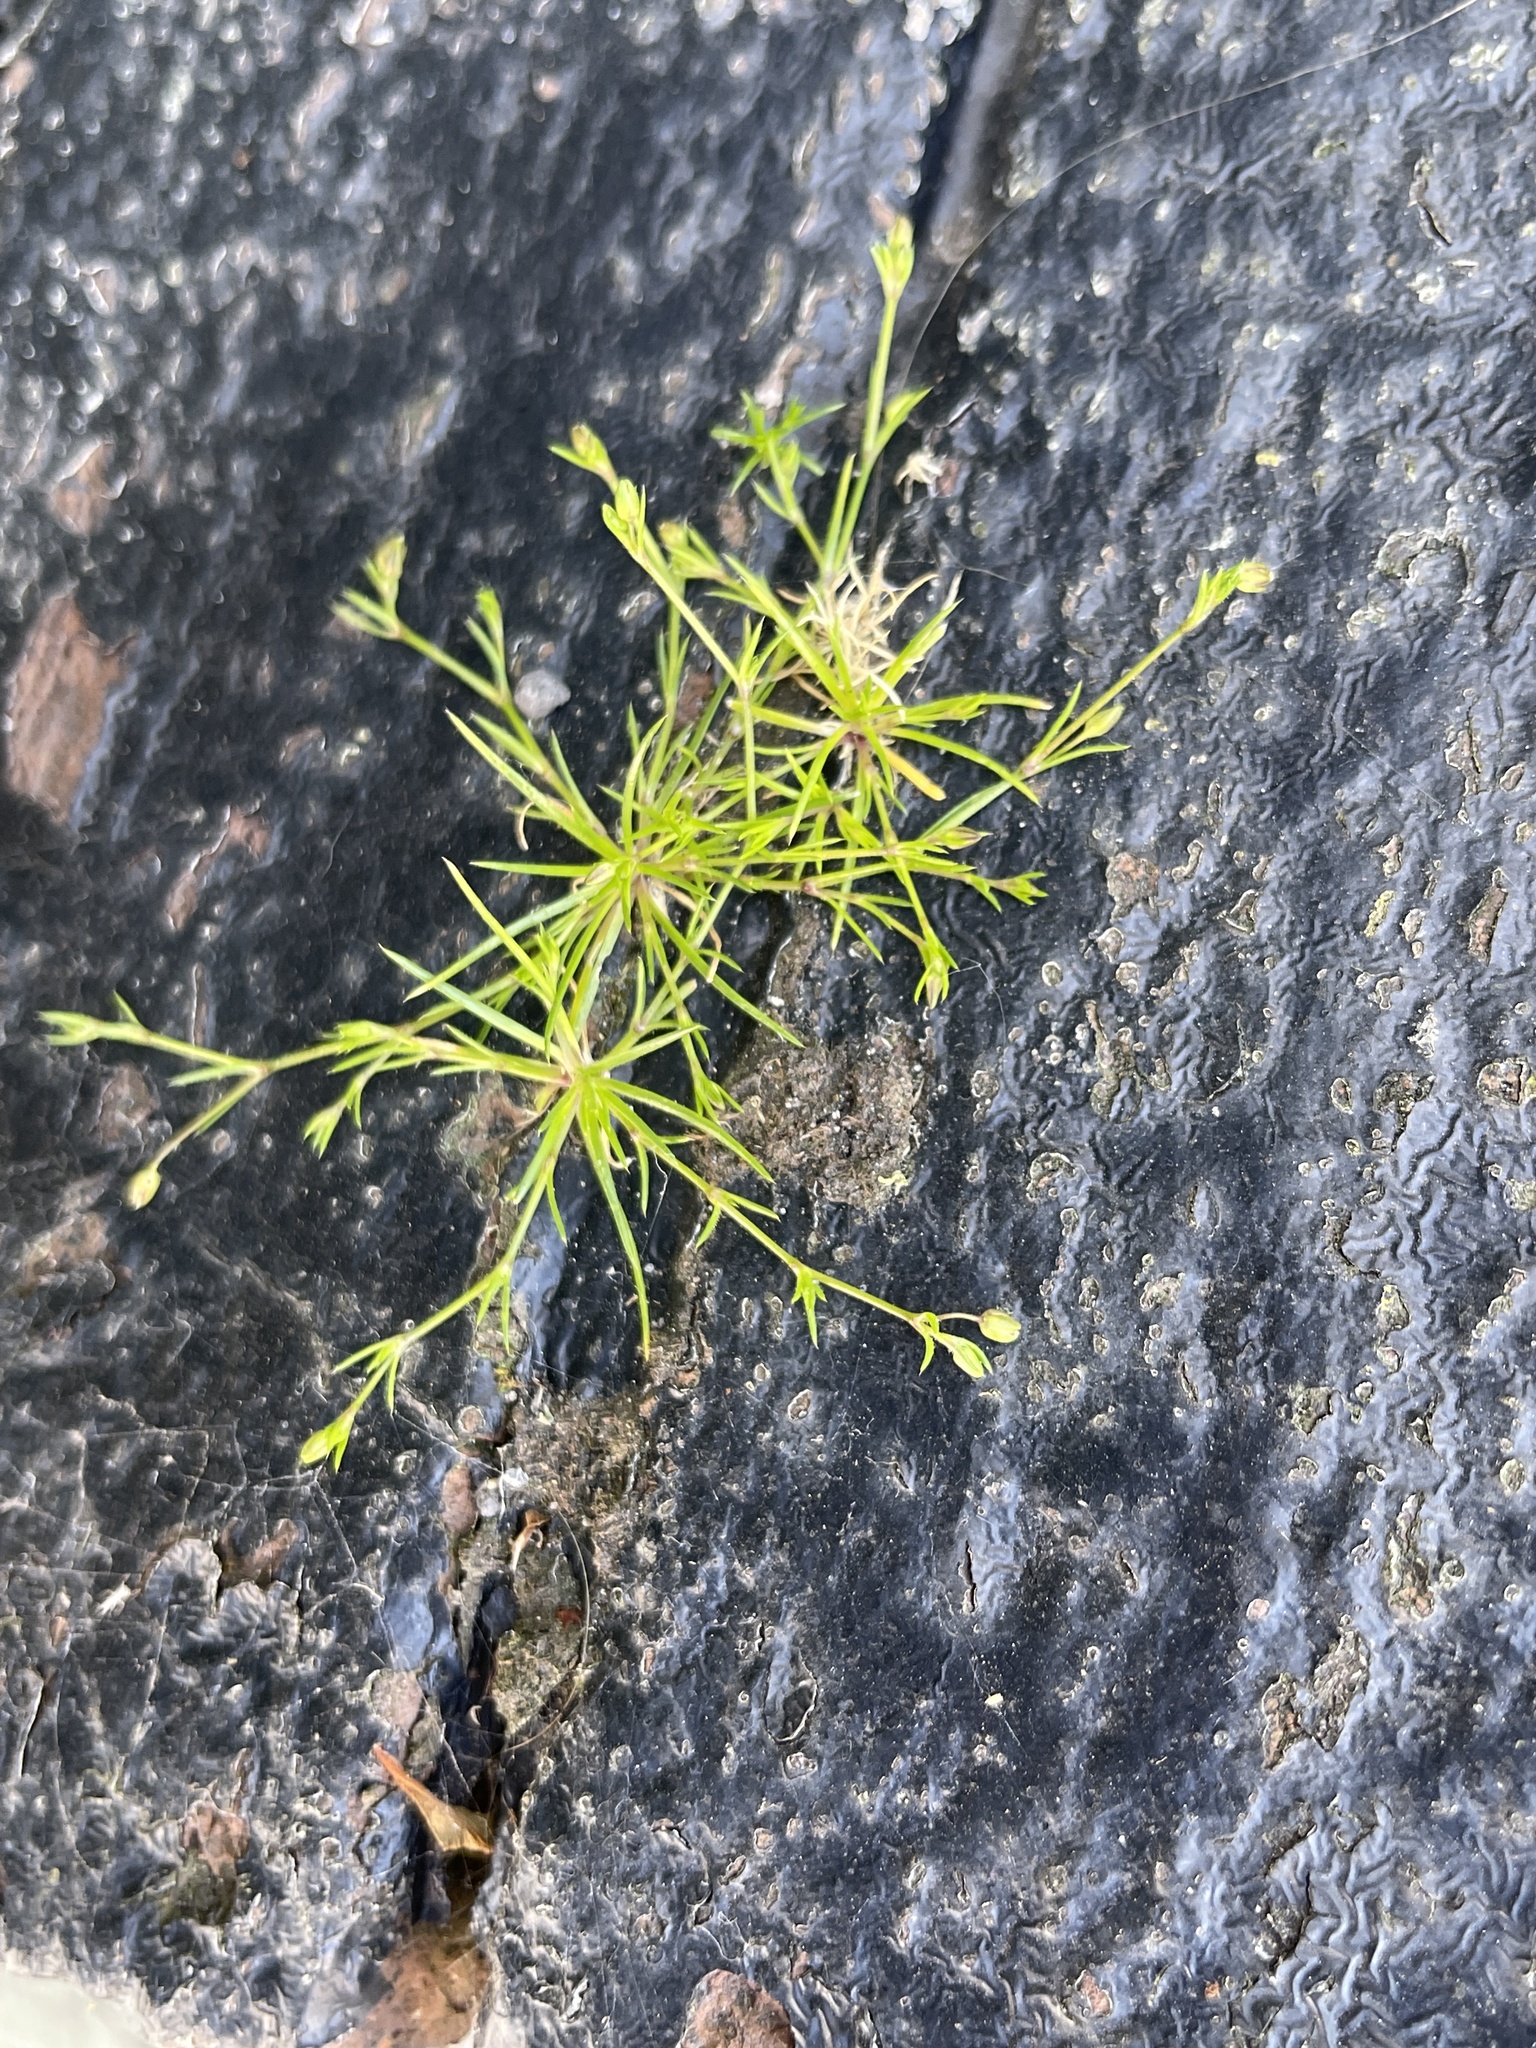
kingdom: Plantae
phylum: Tracheophyta
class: Magnoliopsida
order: Caryophyllales
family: Caryophyllaceae
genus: Sagina
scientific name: Sagina procumbens
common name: Procumbent pearlwort
